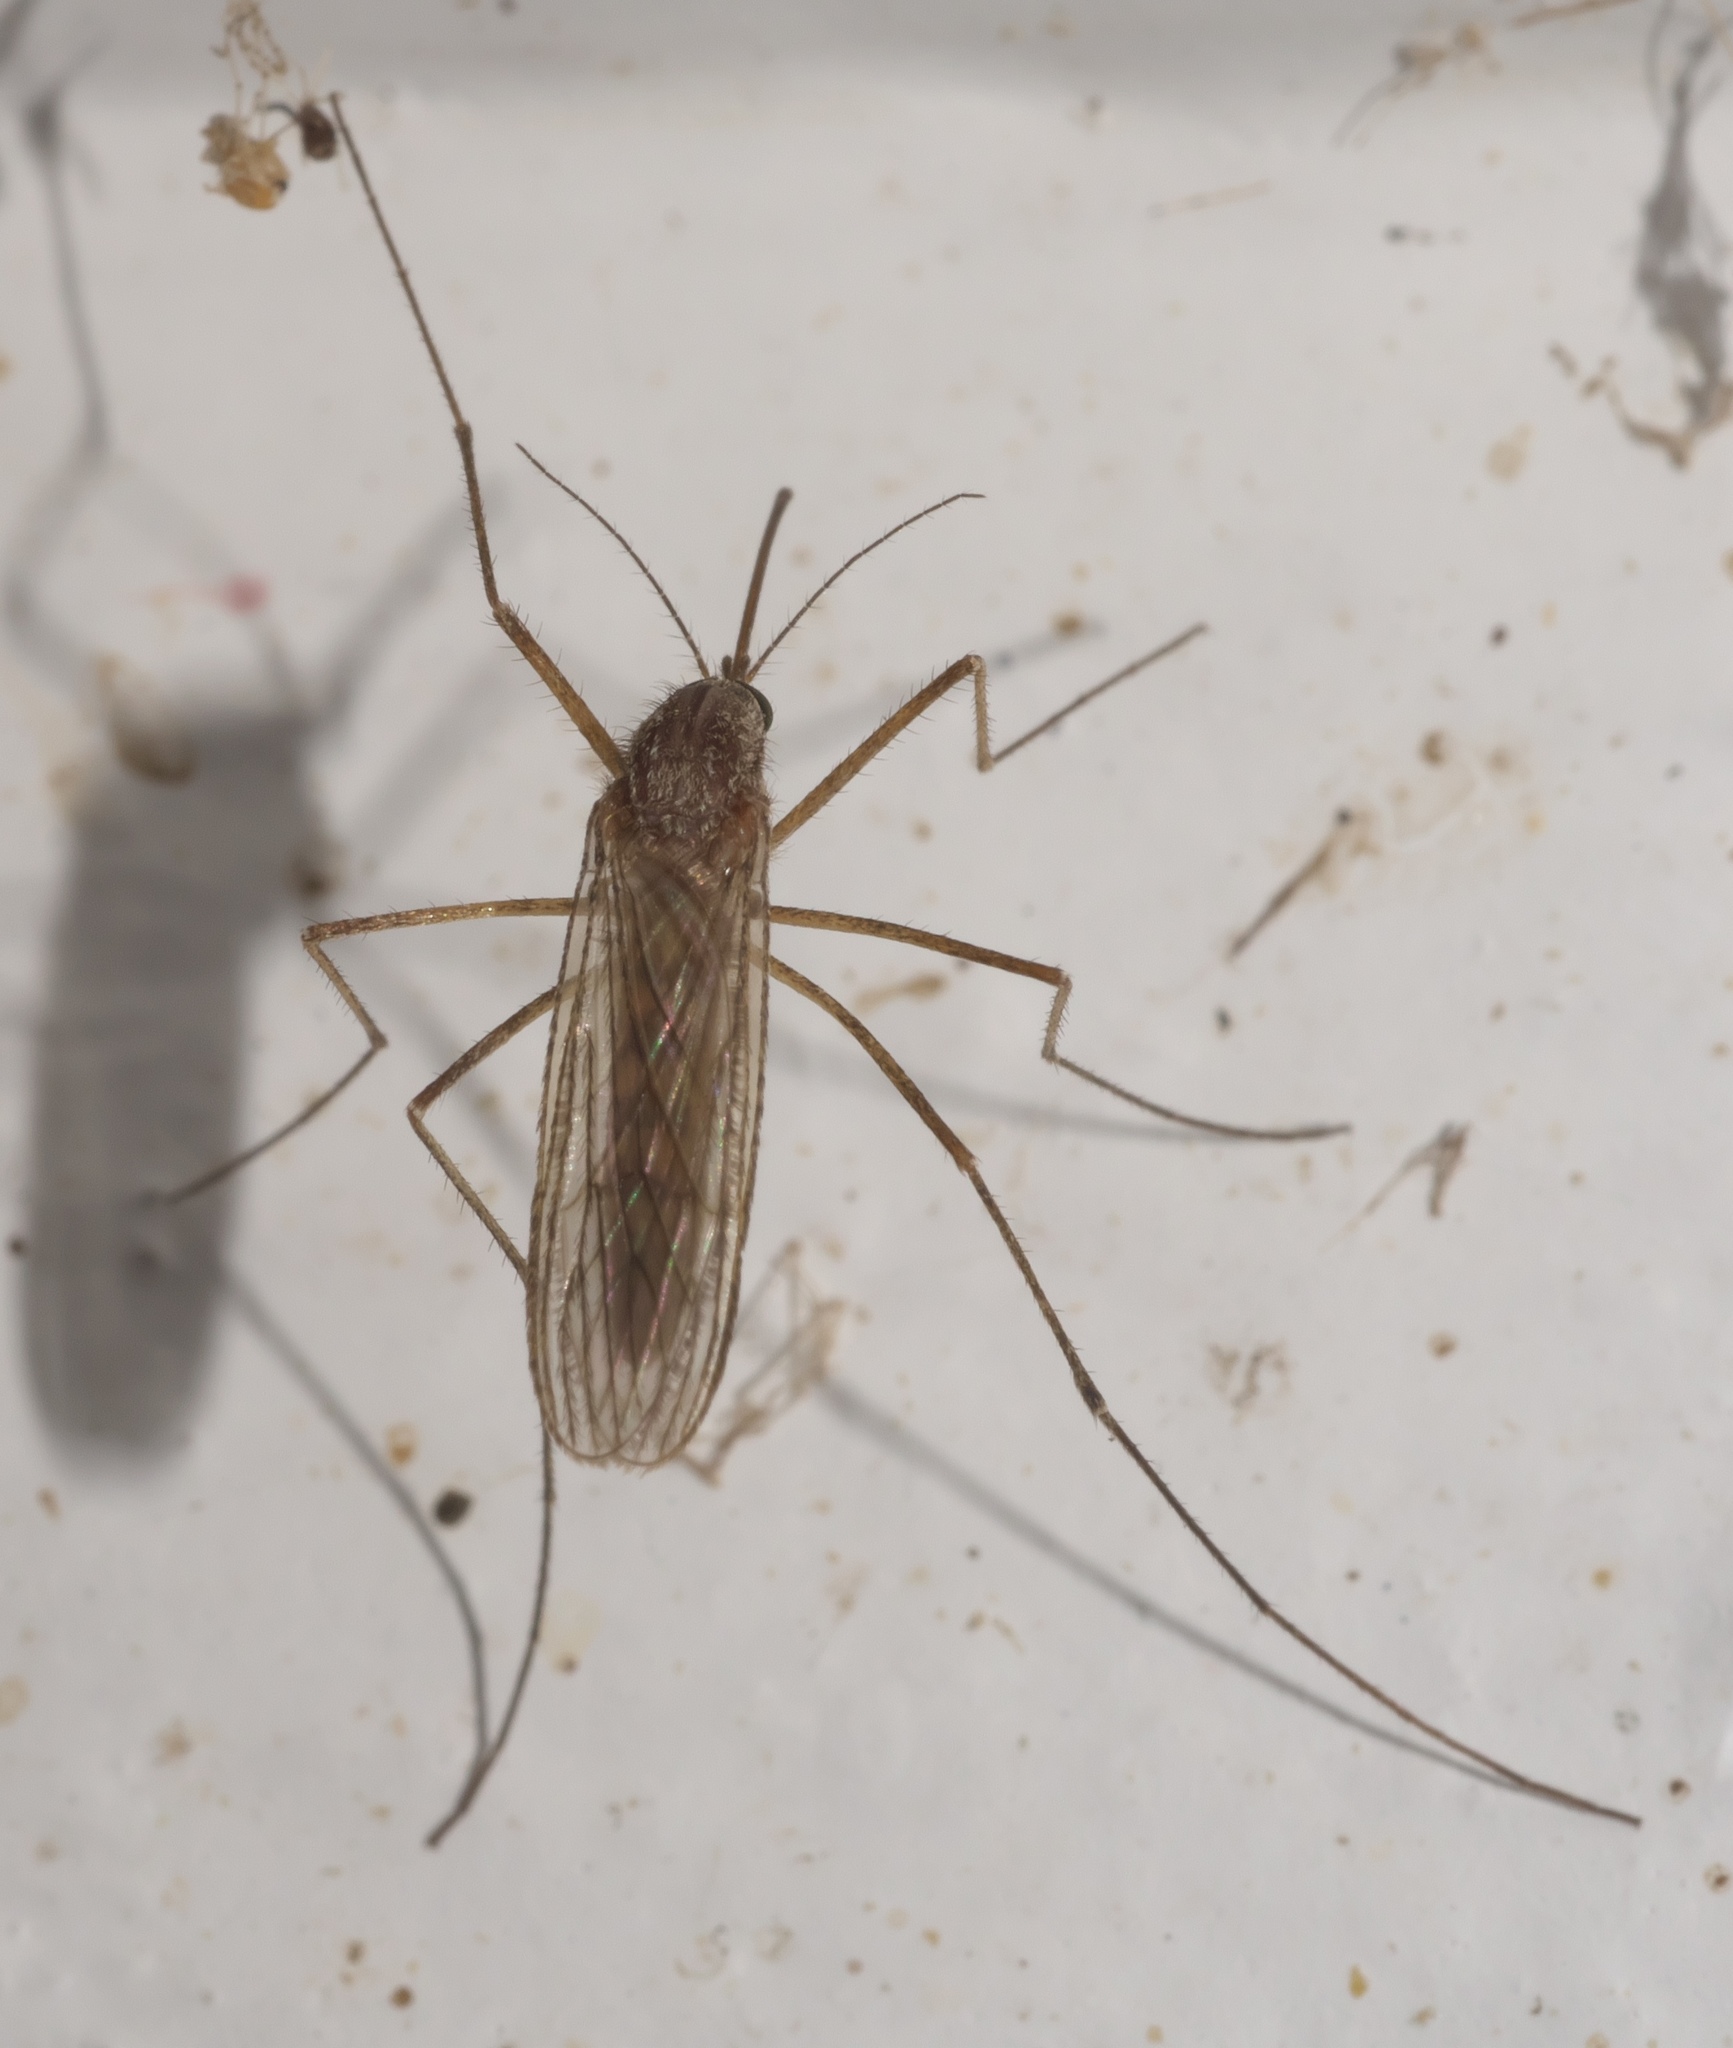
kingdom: Animalia
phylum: Arthropoda
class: Insecta
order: Diptera
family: Culicidae
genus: Culiseta
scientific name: Culiseta inornata
